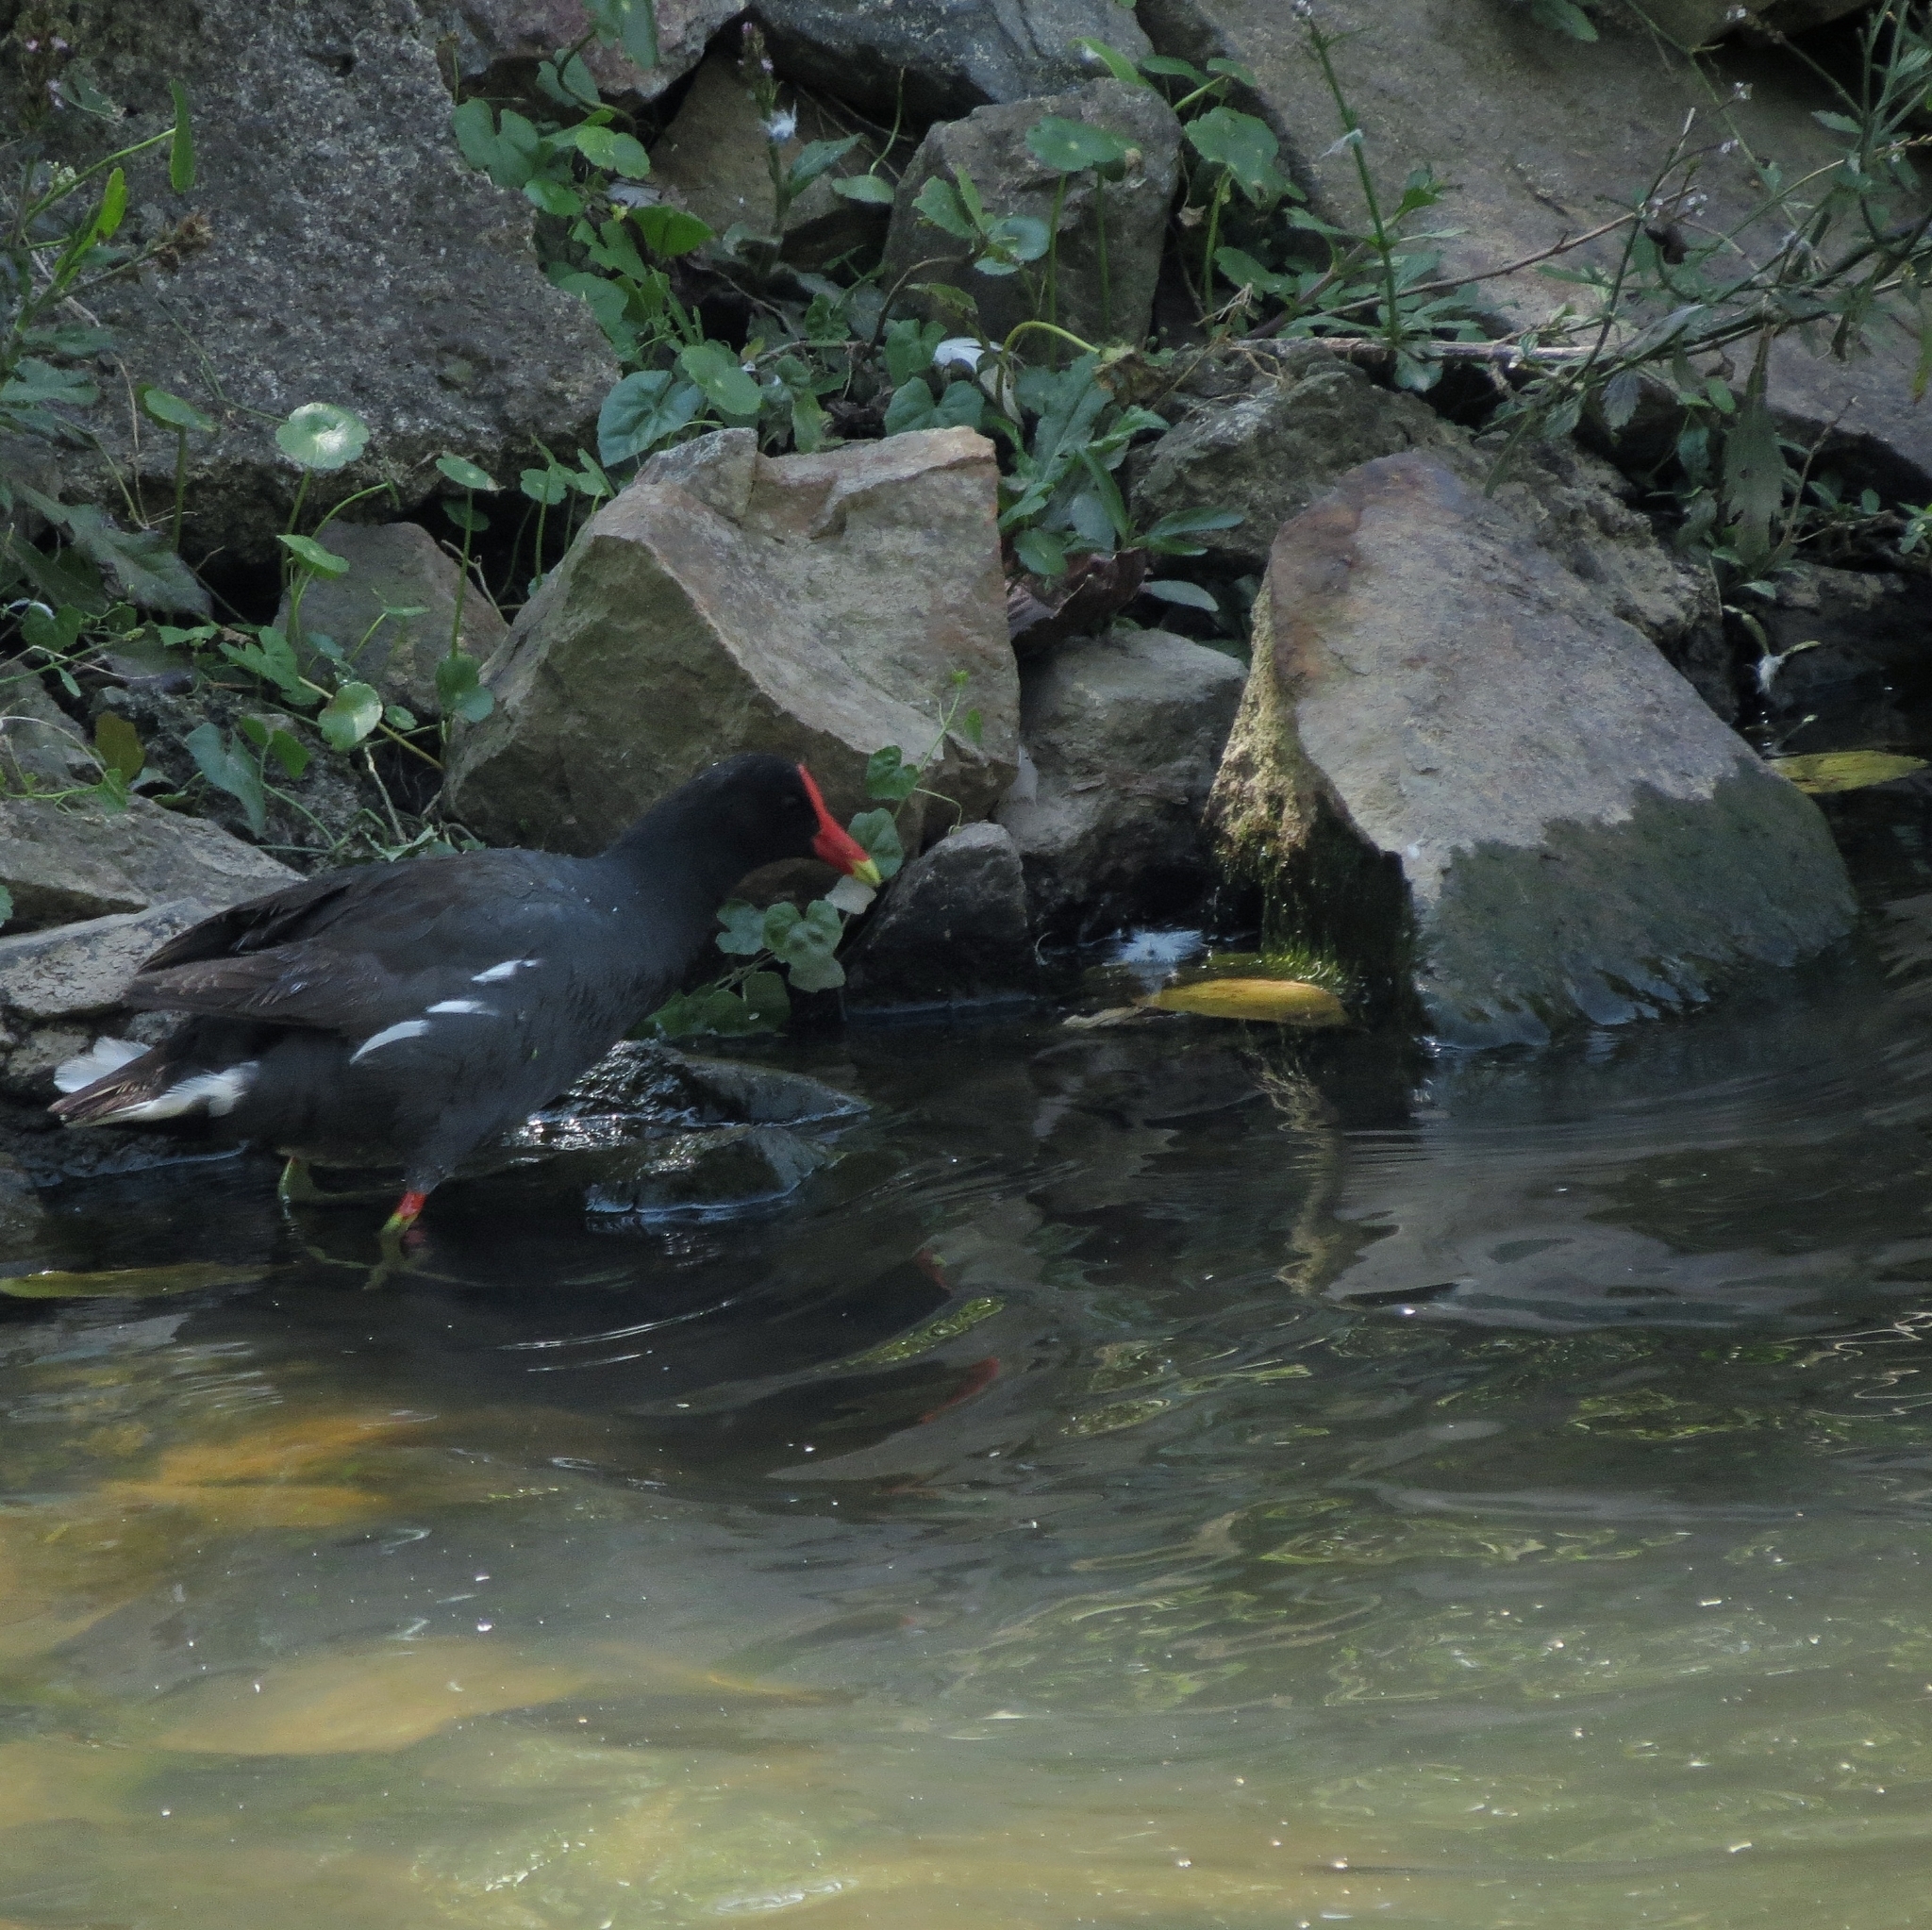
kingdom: Animalia
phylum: Chordata
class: Aves
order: Gruiformes
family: Rallidae
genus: Gallinula
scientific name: Gallinula chloropus
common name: Common moorhen
